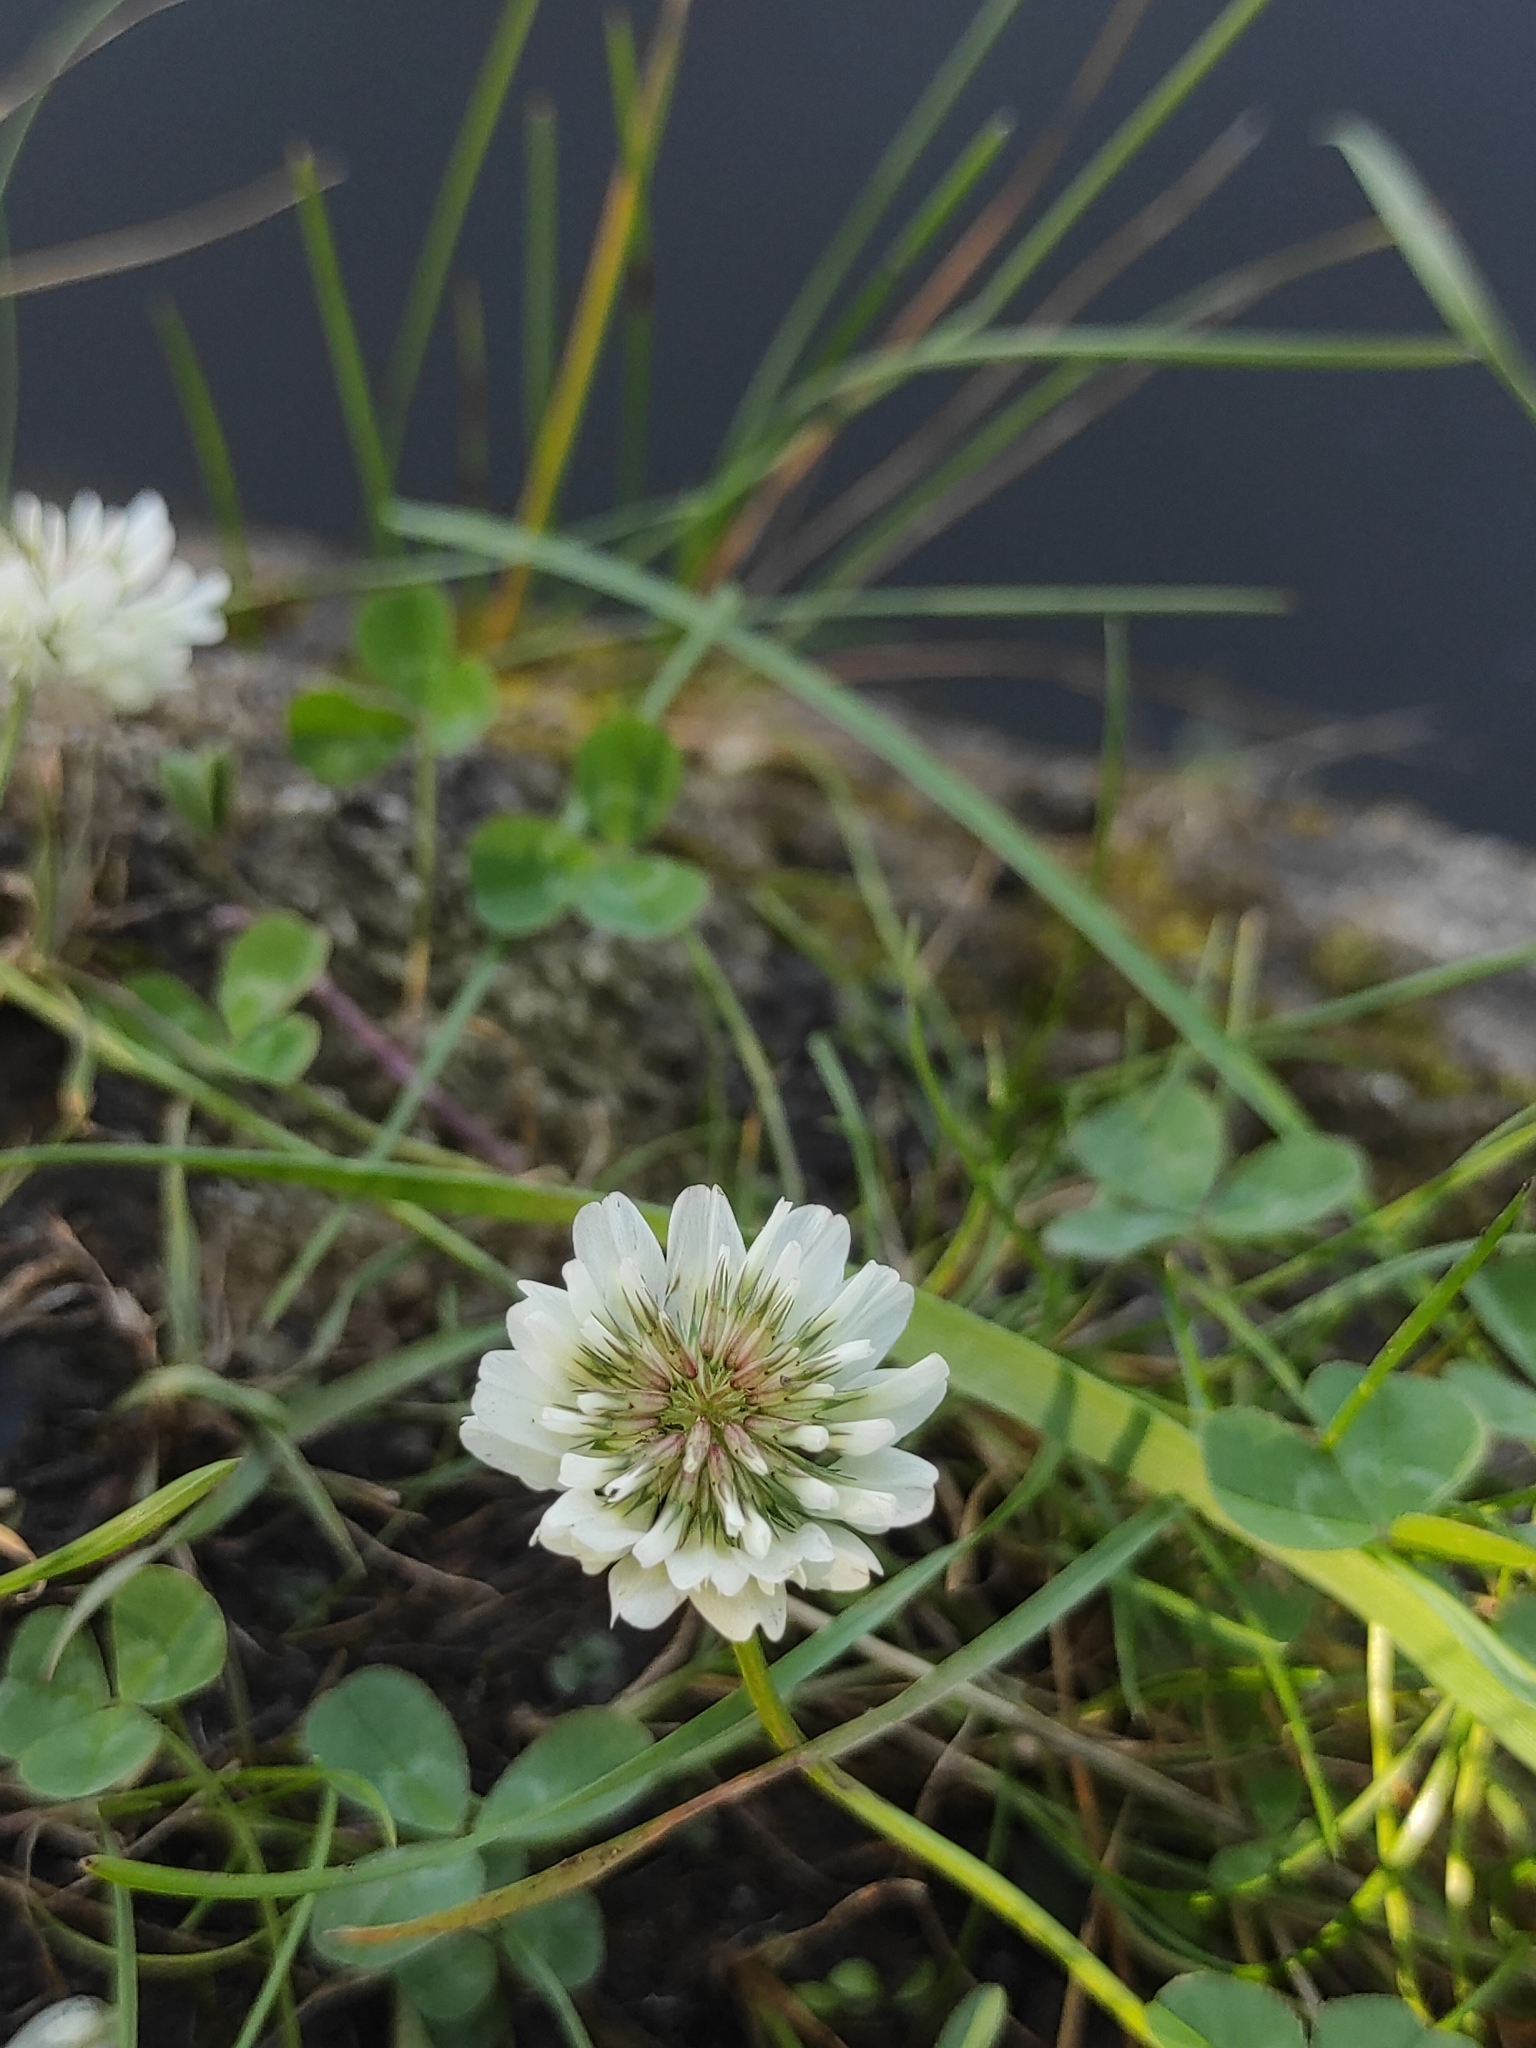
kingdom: Plantae
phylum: Tracheophyta
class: Magnoliopsida
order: Fabales
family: Fabaceae
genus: Trifolium
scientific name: Trifolium repens
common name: White clover
